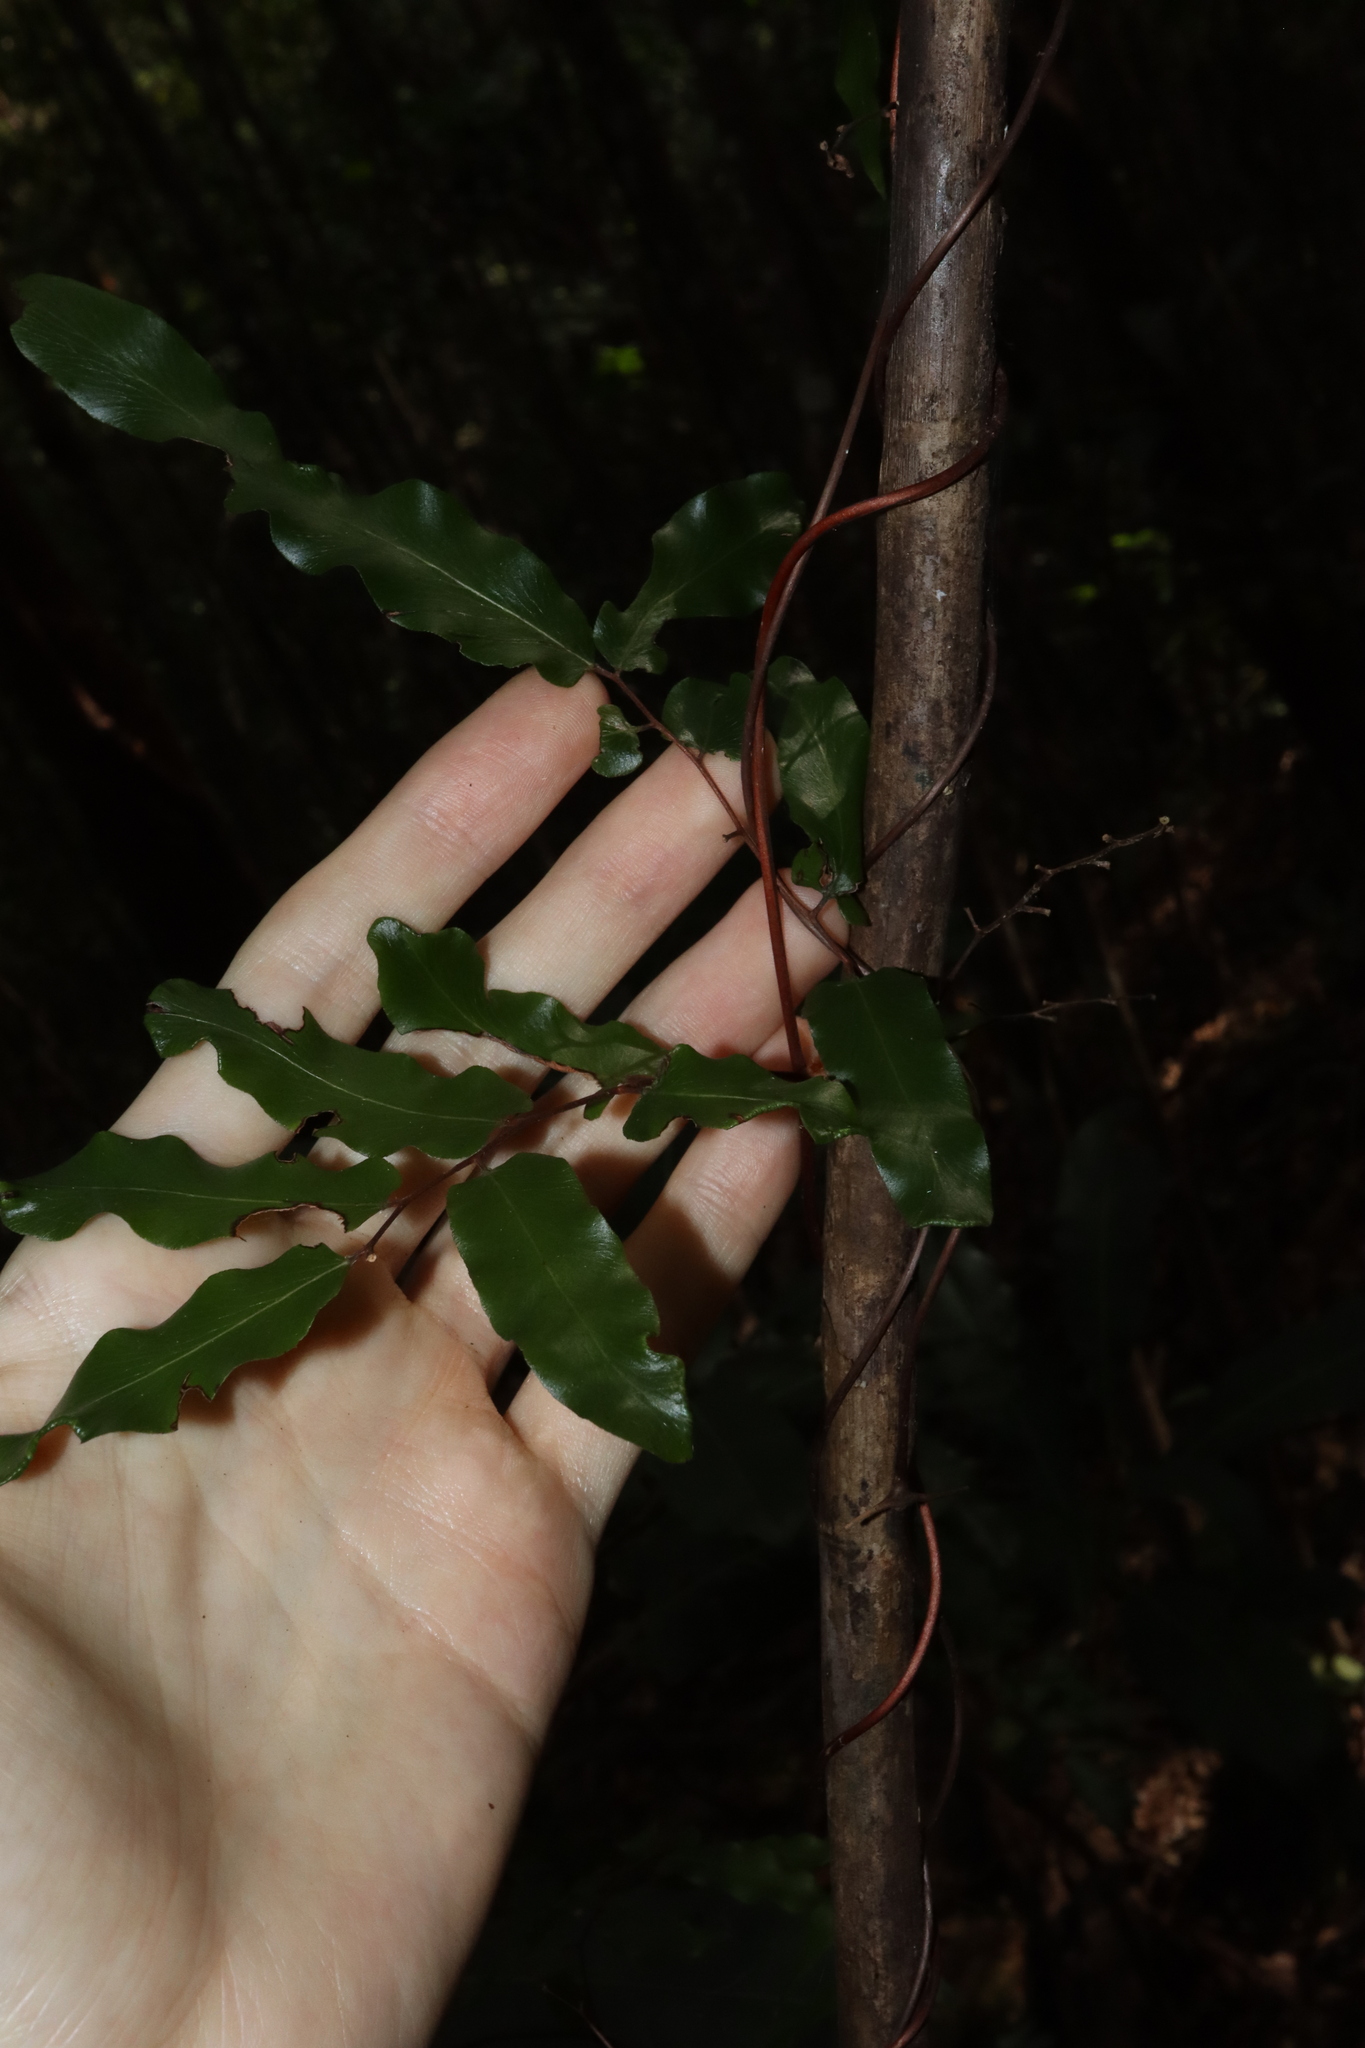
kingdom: Plantae
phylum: Tracheophyta
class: Polypodiopsida
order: Schizaeales
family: Lygodiaceae
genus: Lygodium
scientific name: Lygodium reticulatum
